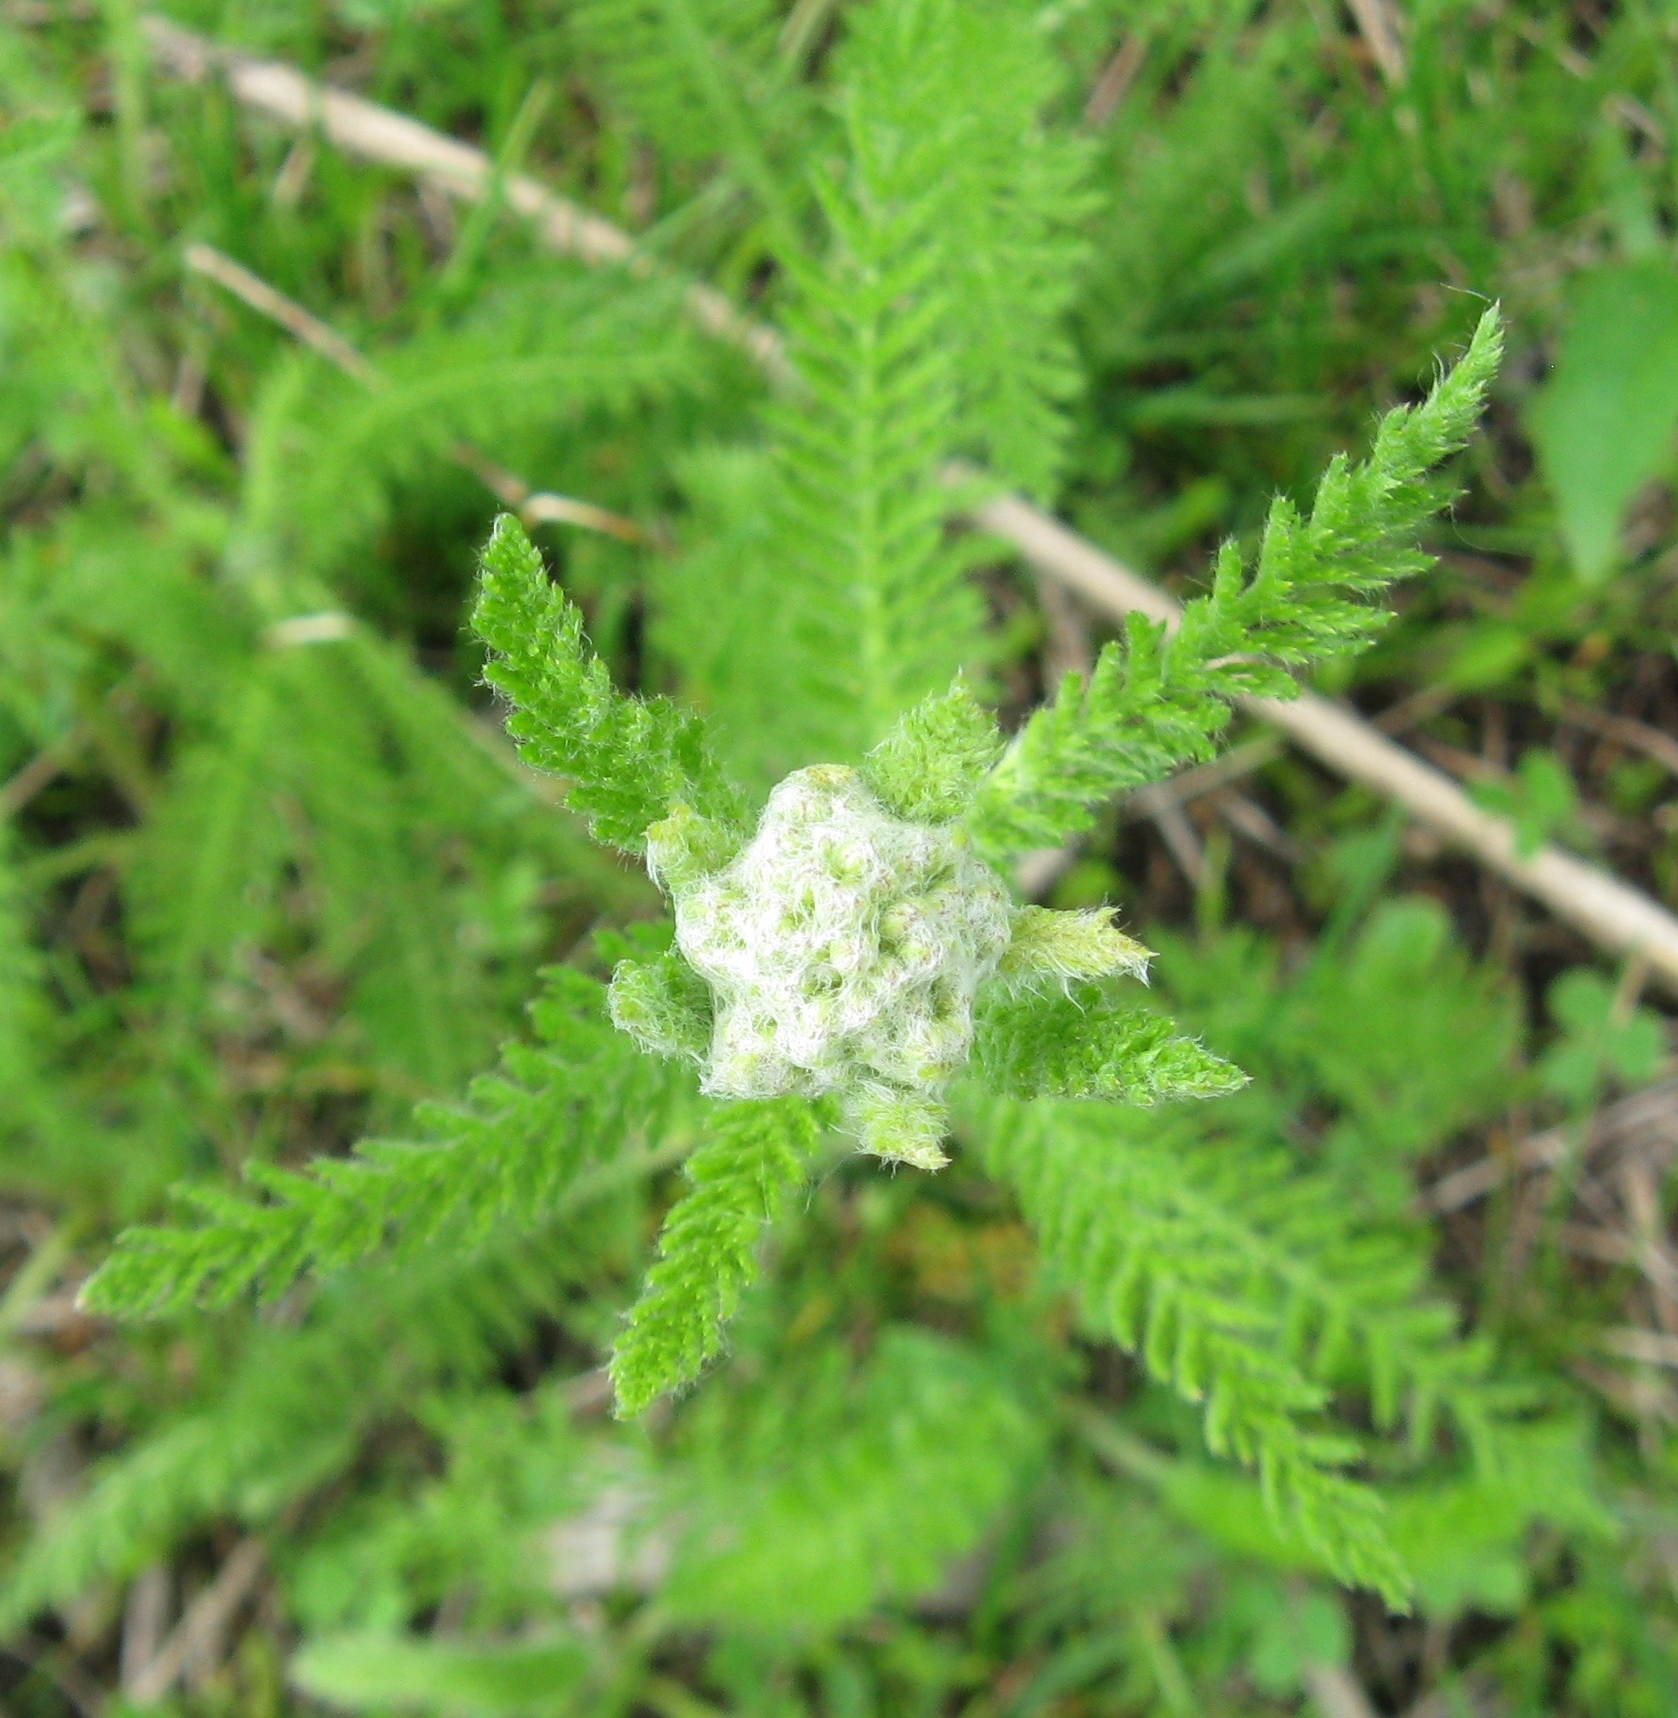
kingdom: Plantae
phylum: Tracheophyta
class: Magnoliopsida
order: Asterales
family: Asteraceae
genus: Achillea
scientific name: Achillea millefolium
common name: Yarrow
